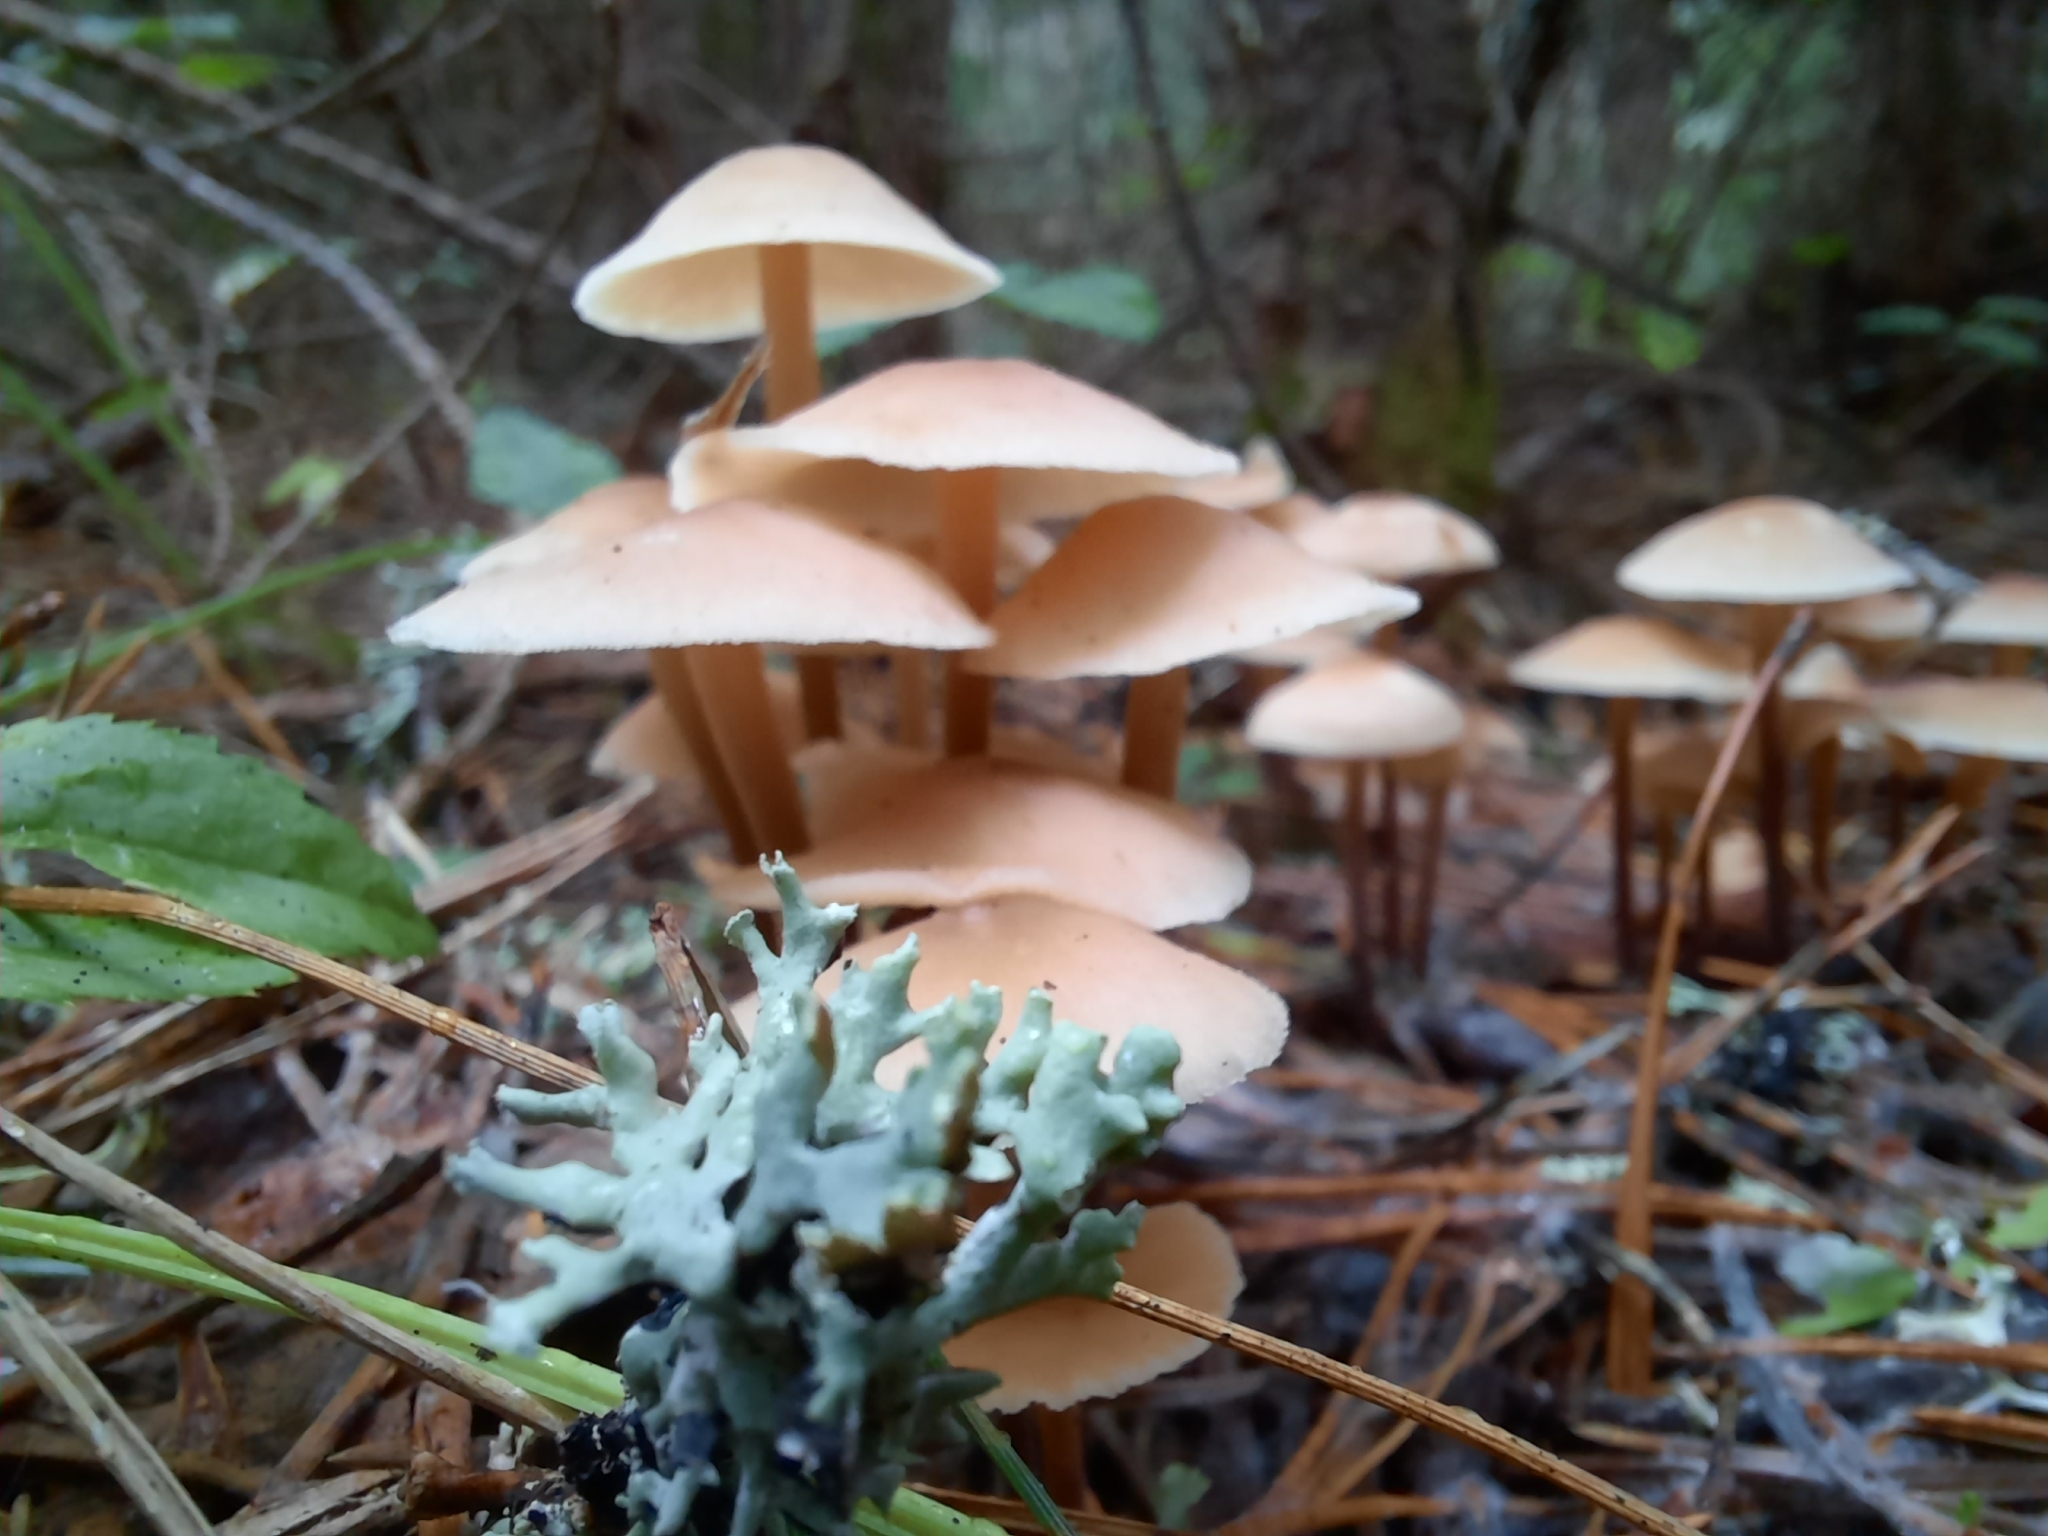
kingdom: Fungi
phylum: Basidiomycota
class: Agaricomycetes
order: Agaricales
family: Omphalotaceae
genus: Collybiopsis
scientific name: Collybiopsis confluens
